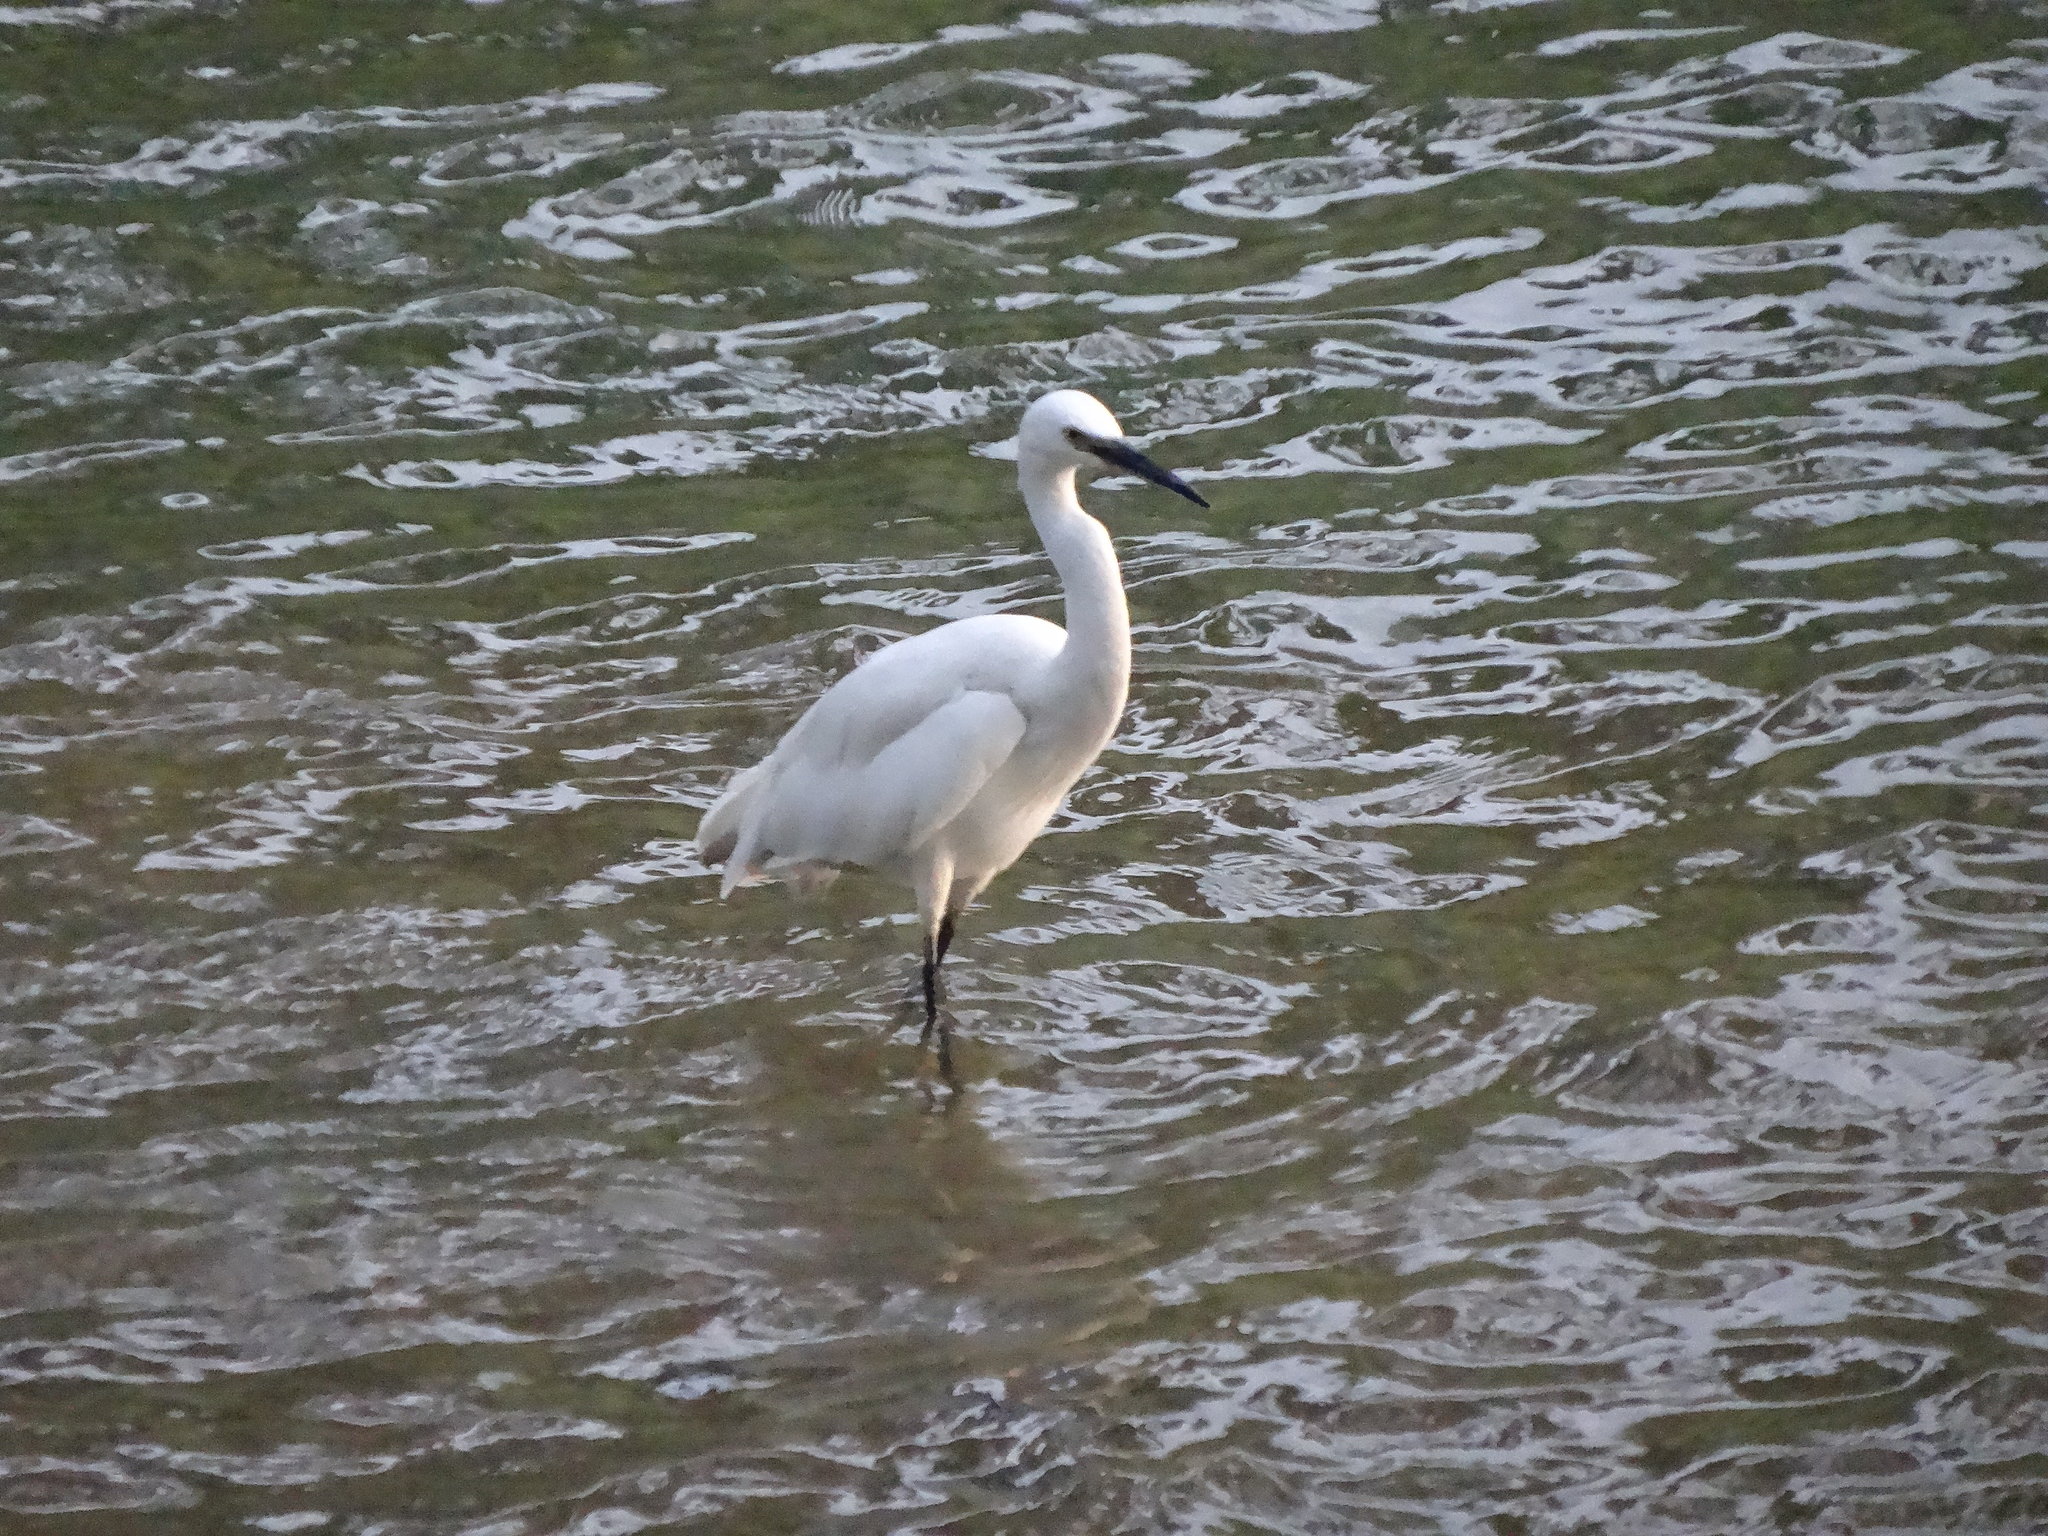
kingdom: Animalia
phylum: Chordata
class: Aves
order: Pelecaniformes
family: Ardeidae
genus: Egretta
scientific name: Egretta garzetta
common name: Little egret
